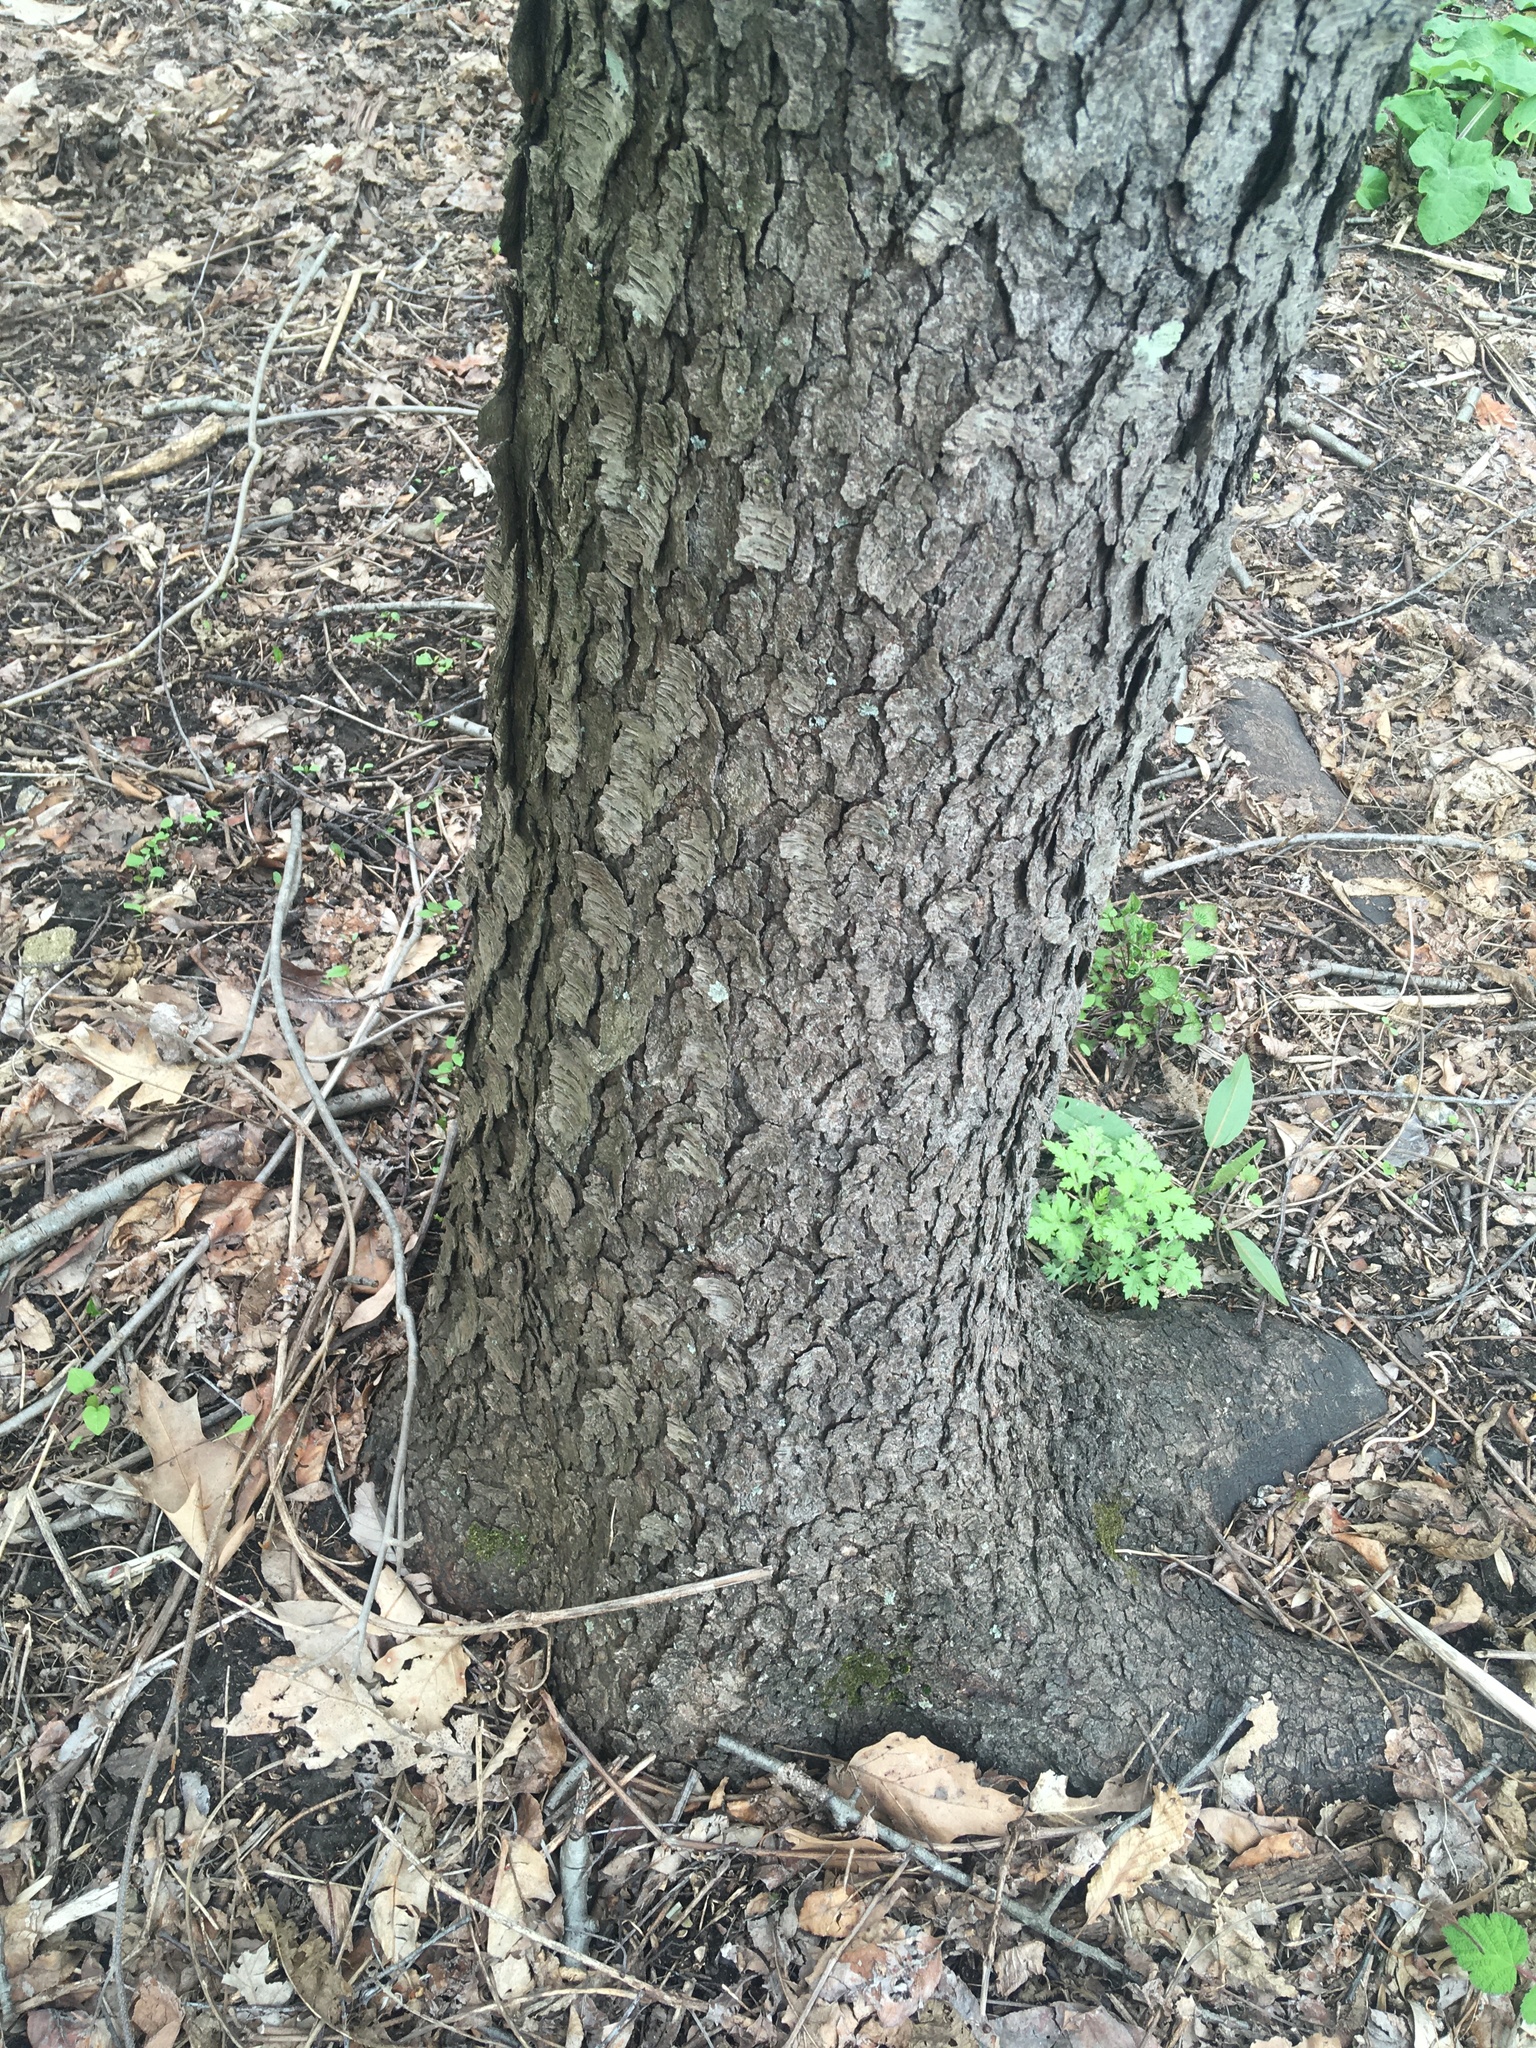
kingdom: Plantae
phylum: Tracheophyta
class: Magnoliopsida
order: Rosales
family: Rosaceae
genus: Prunus
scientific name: Prunus serotina
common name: Black cherry
